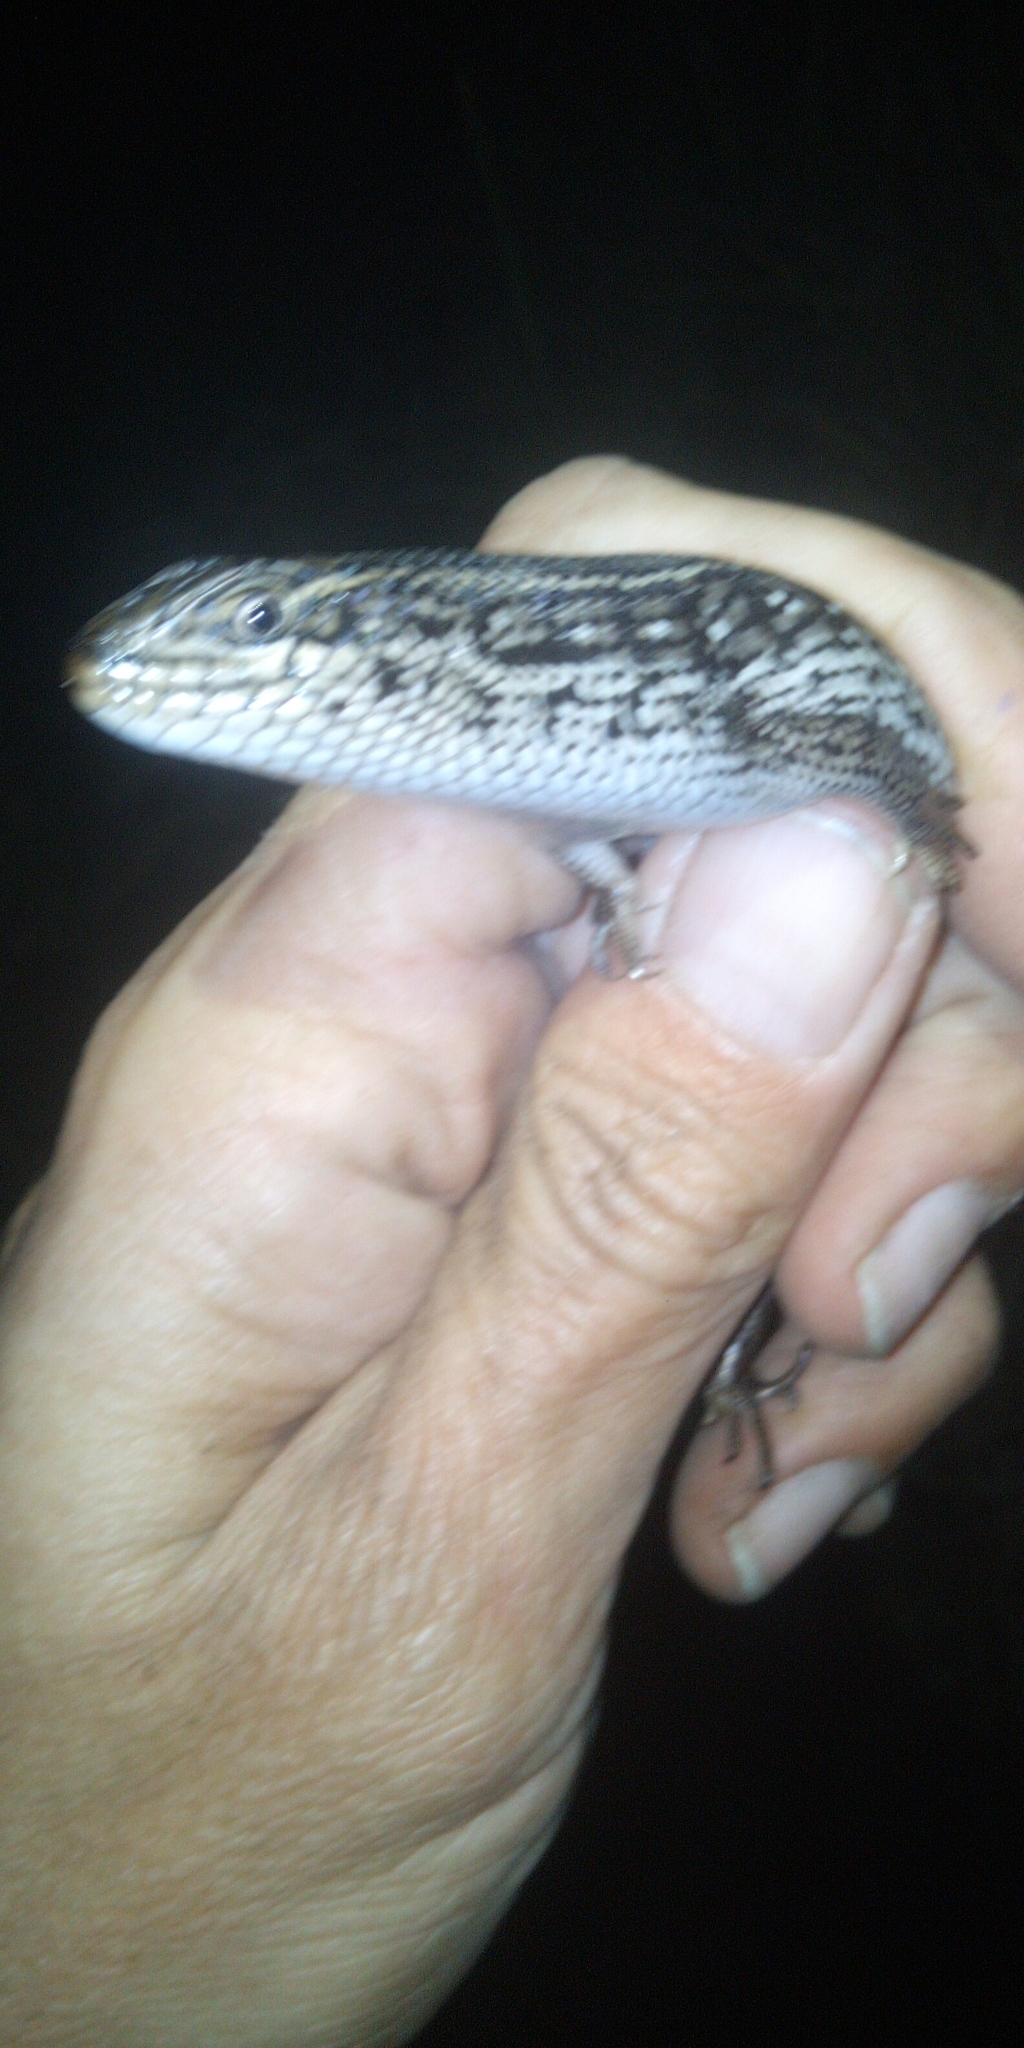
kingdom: Animalia
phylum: Chordata
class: Squamata
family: Scincidae
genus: Trachylepis
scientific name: Trachylepis capensis
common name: Cape skink
